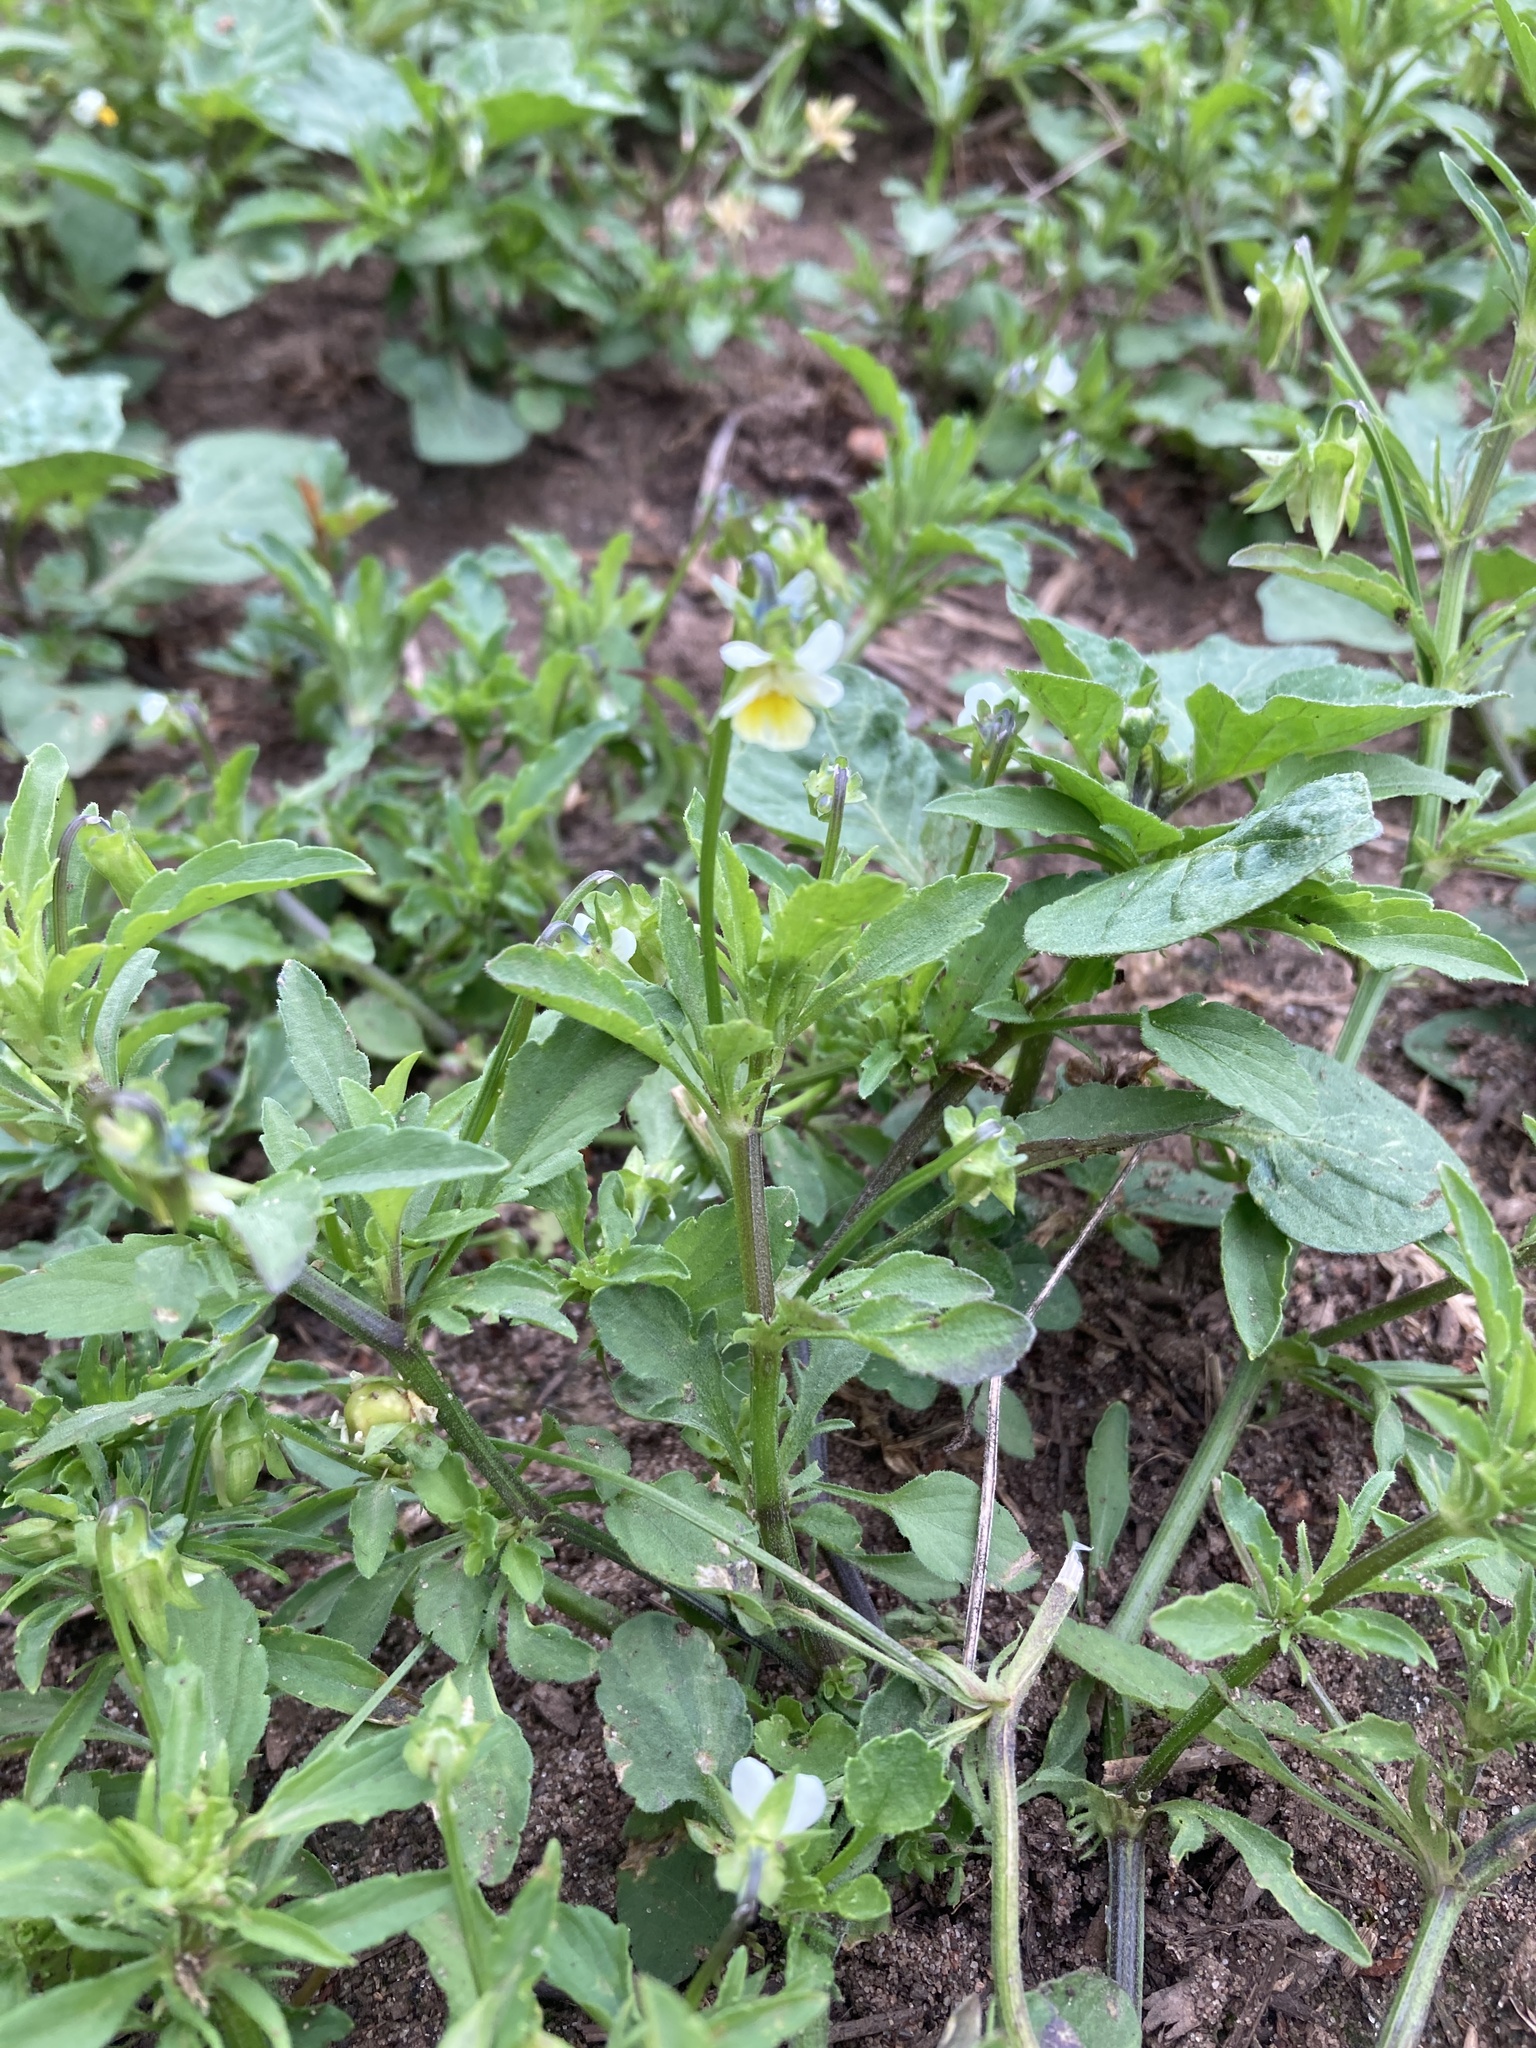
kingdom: Plantae
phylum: Tracheophyta
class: Magnoliopsida
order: Malpighiales
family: Violaceae
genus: Viola
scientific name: Viola arvensis
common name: Field pansy
